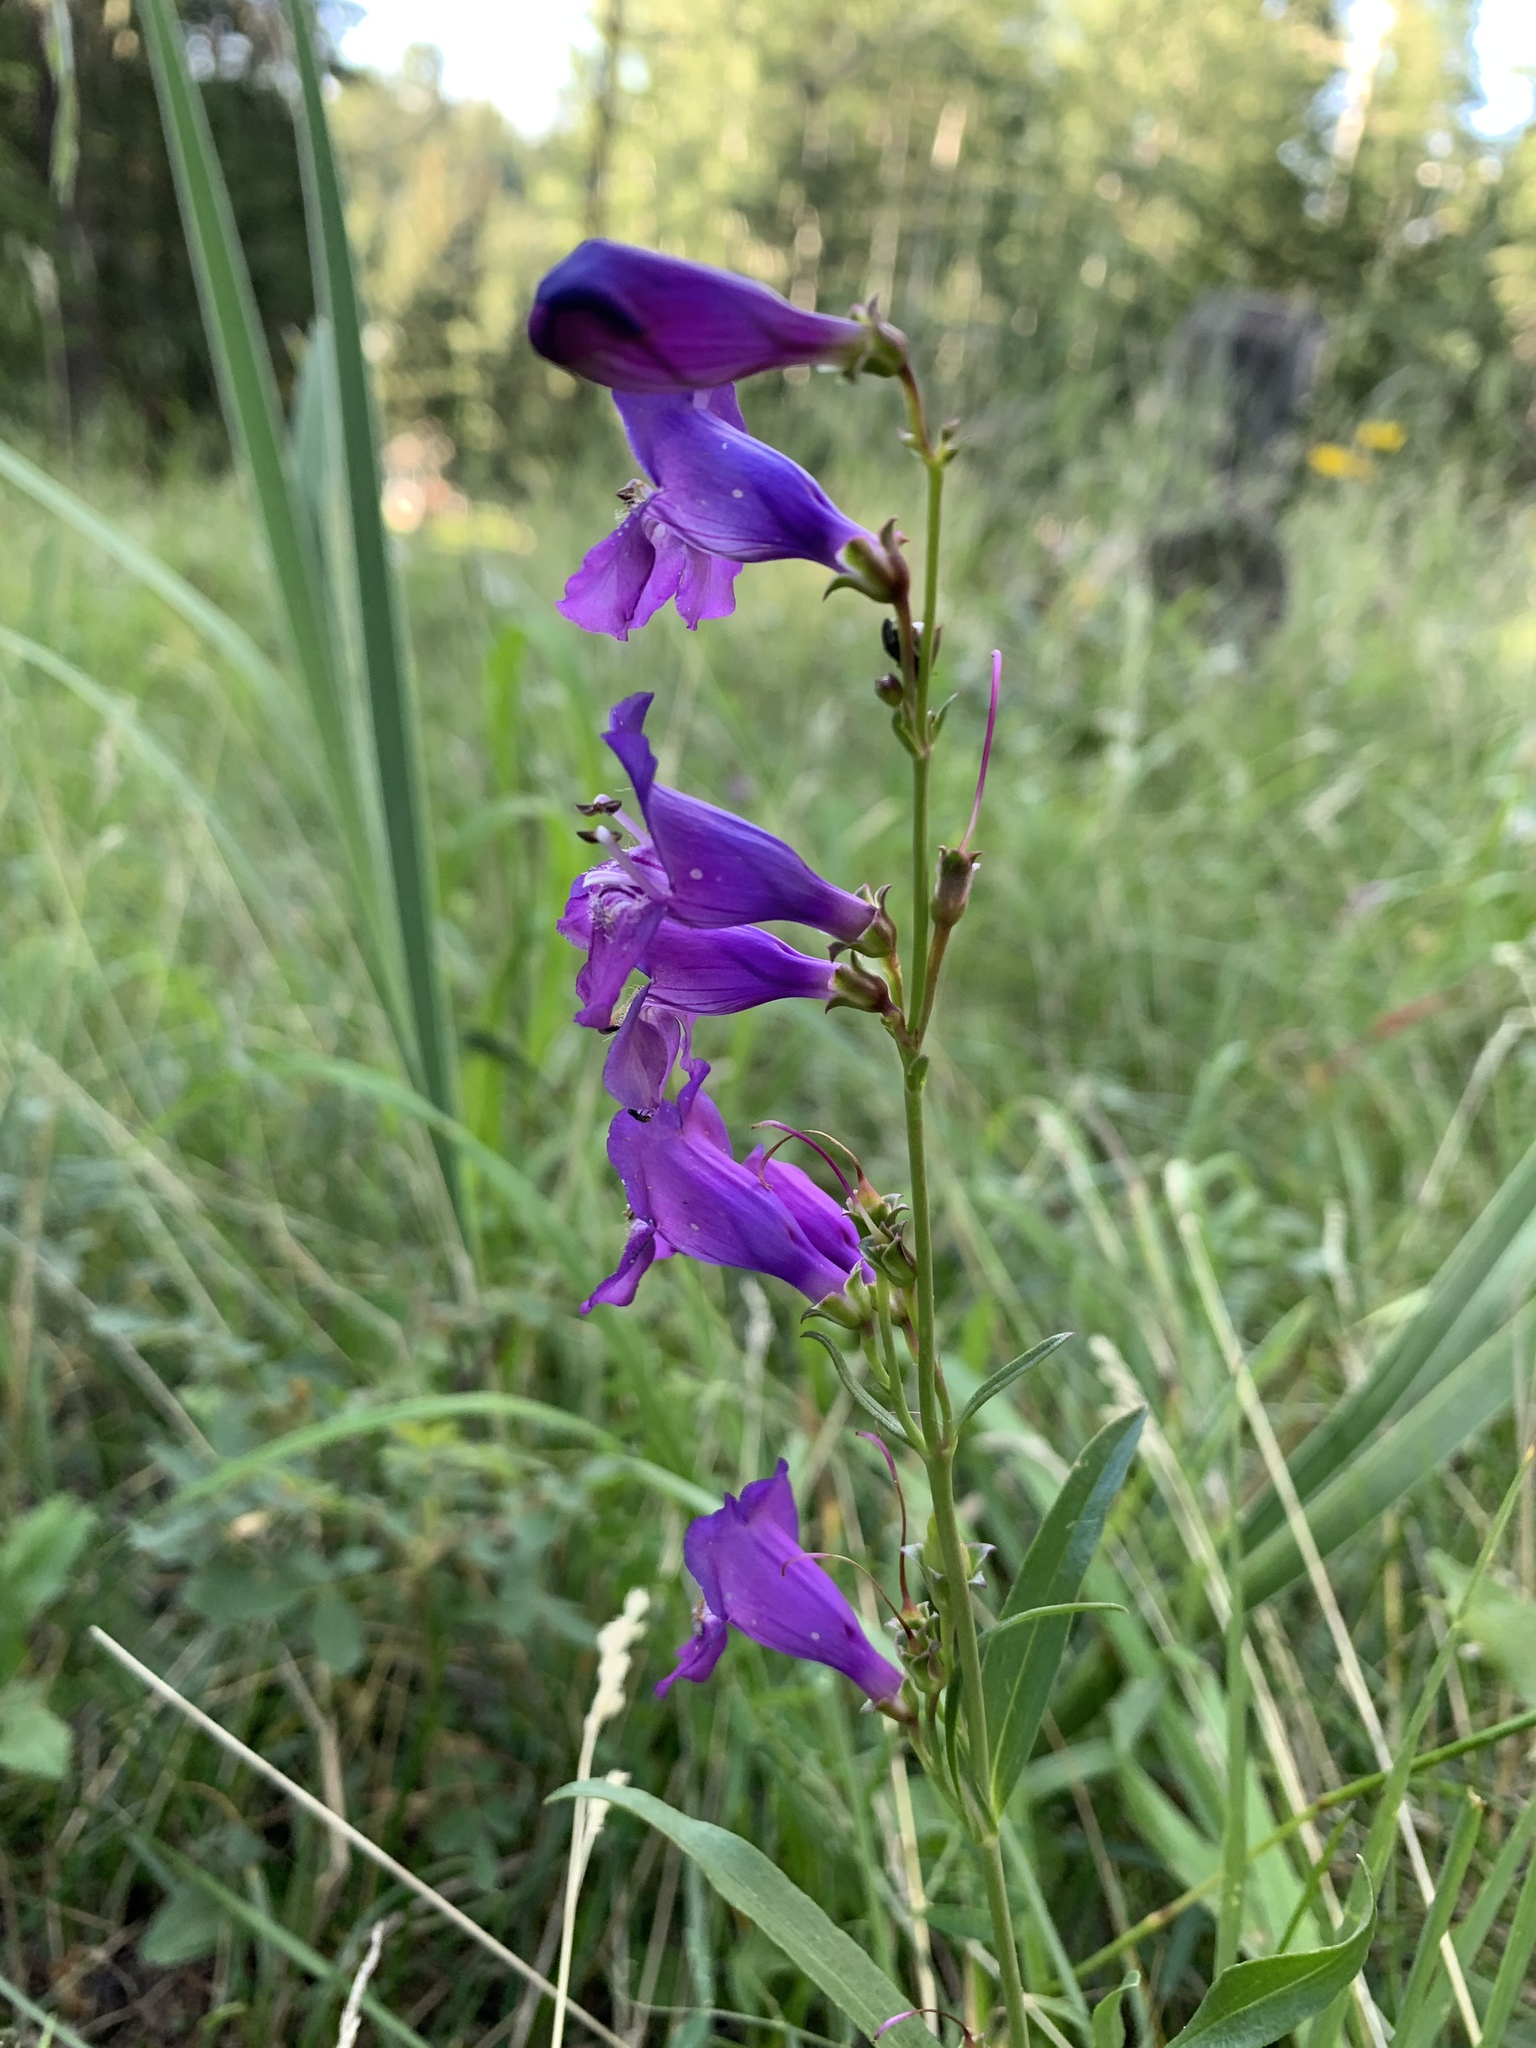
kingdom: Plantae
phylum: Tracheophyta
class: Magnoliopsida
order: Lamiales
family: Plantaginaceae
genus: Penstemon
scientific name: Penstemon neomexicanus
